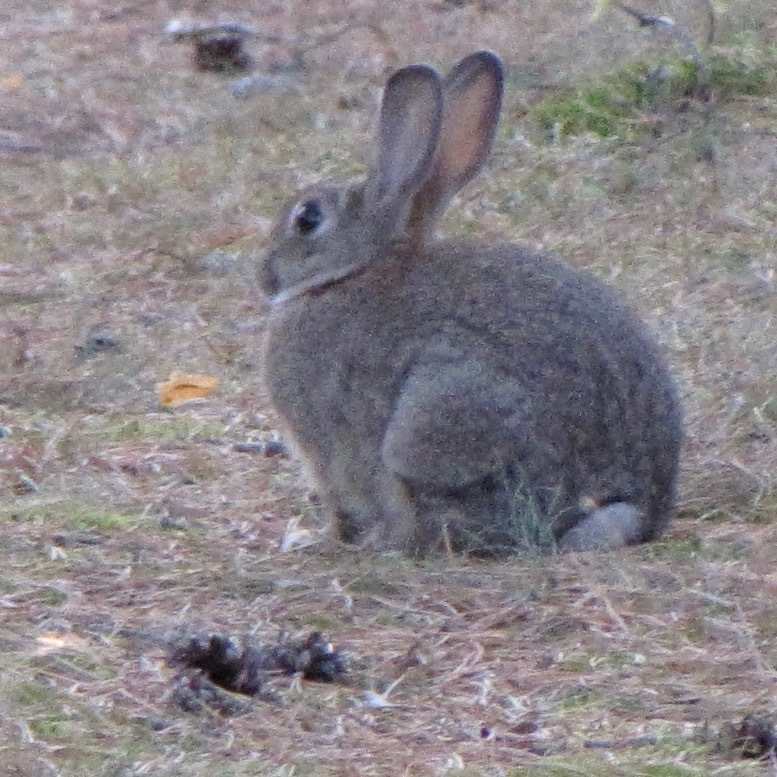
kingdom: Animalia
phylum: Chordata
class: Mammalia
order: Lagomorpha
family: Leporidae
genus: Oryctolagus
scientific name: Oryctolagus cuniculus
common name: European rabbit
